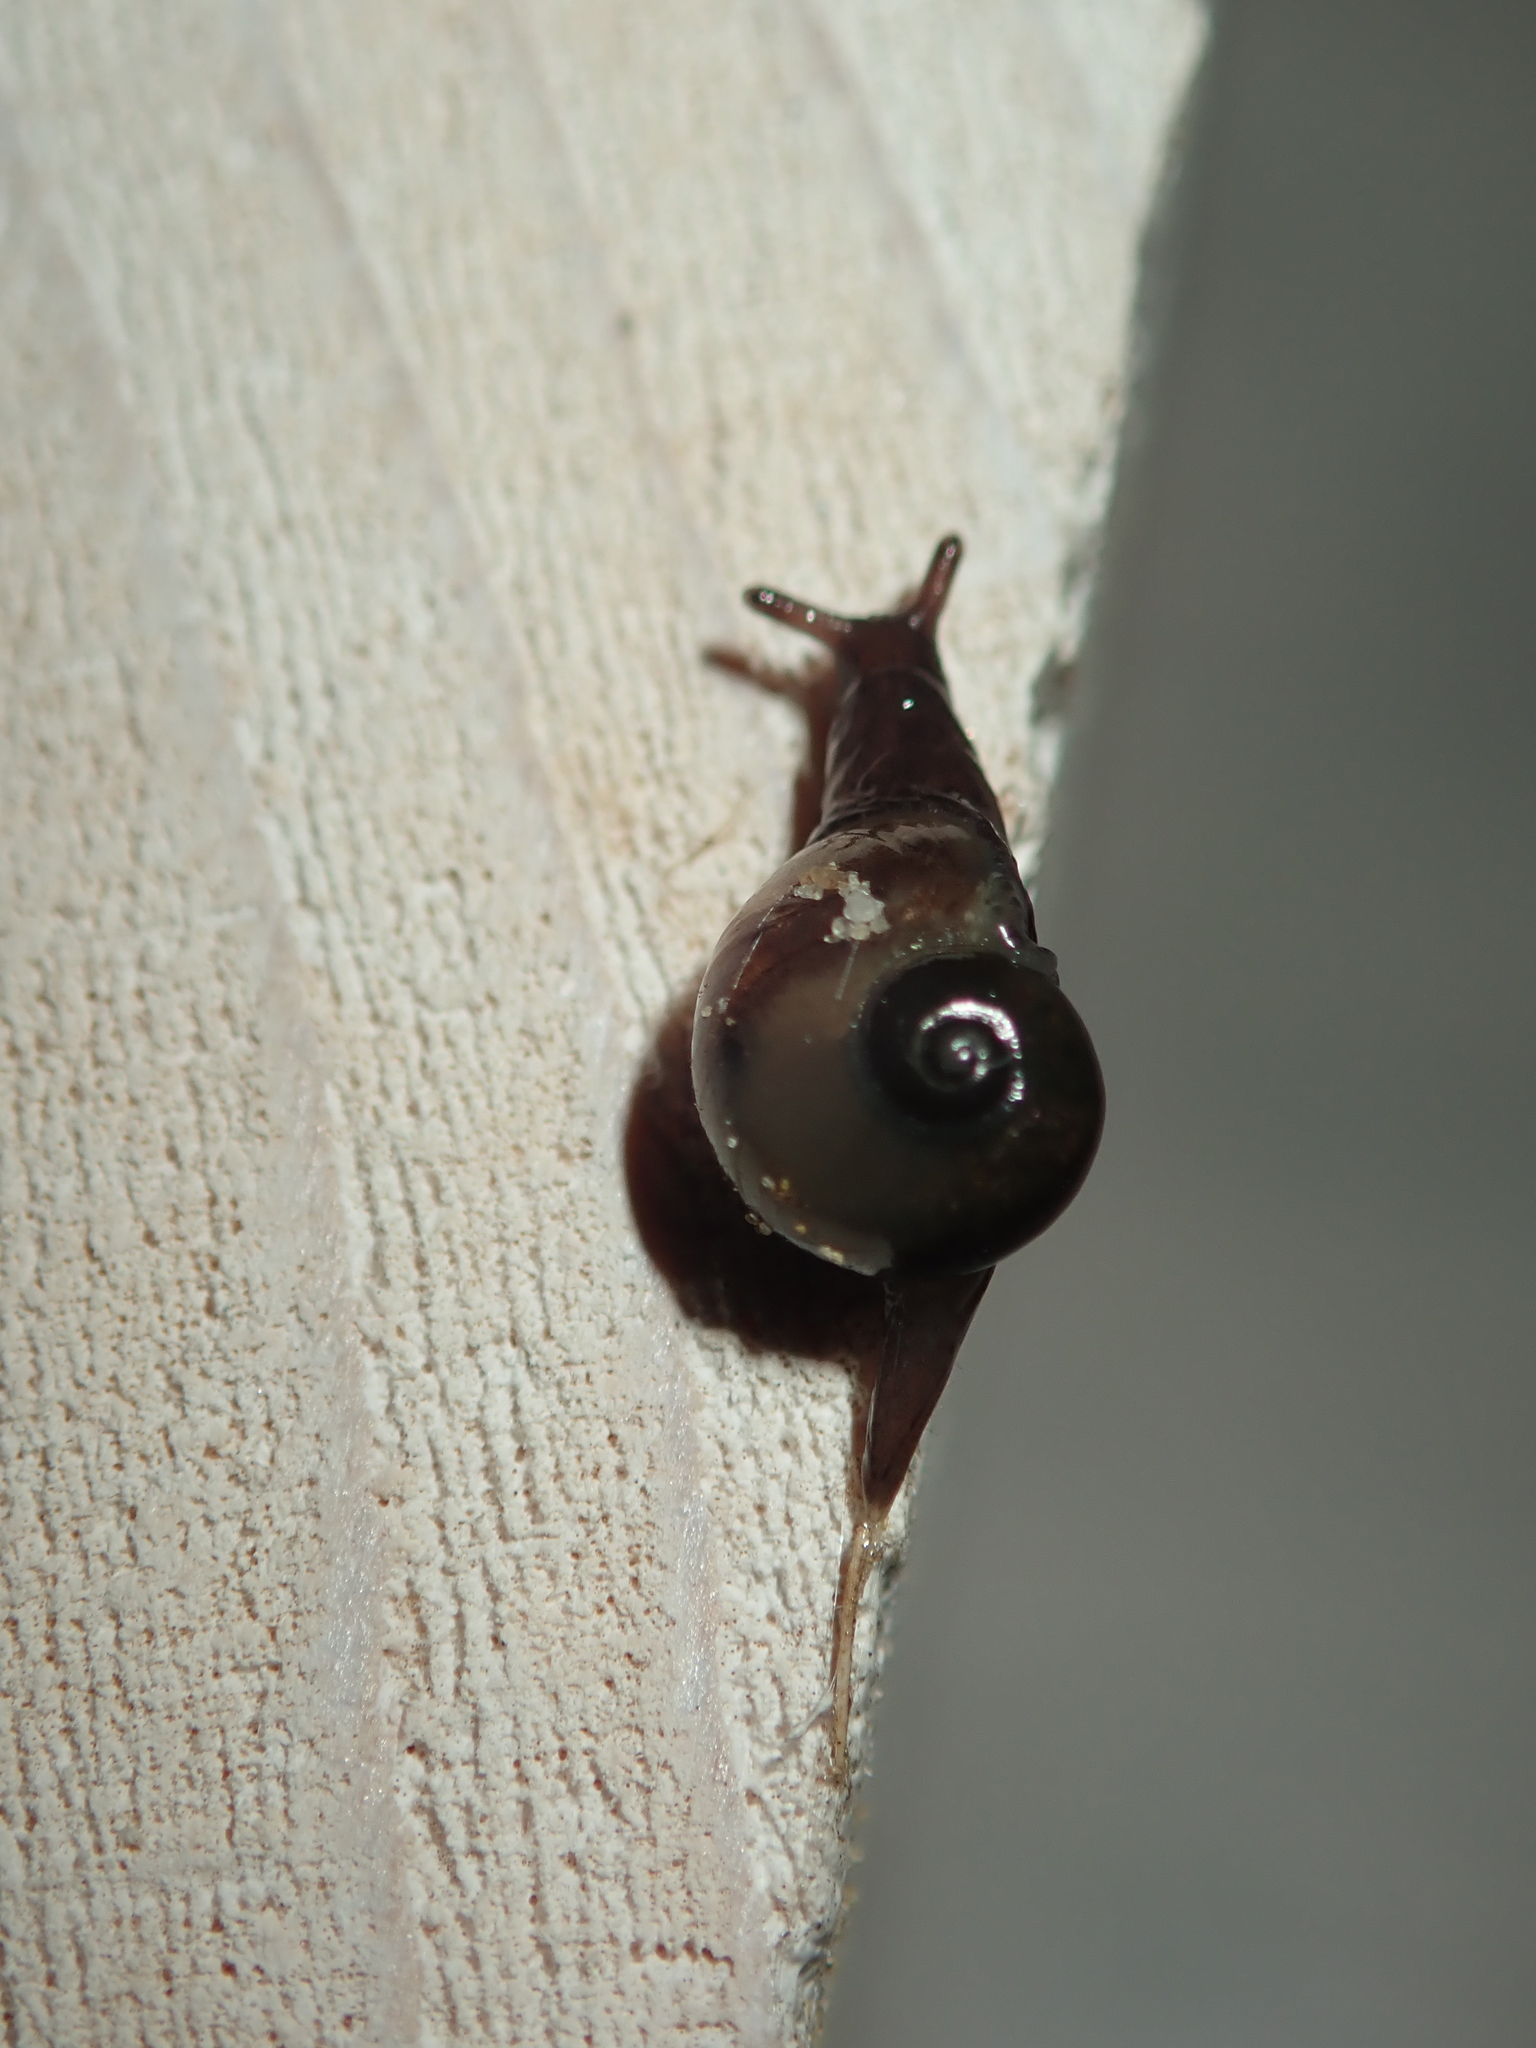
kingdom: Animalia
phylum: Mollusca
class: Gastropoda
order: Stylommatophora
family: Vitrinidae
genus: Vitrina
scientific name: Vitrina pellucida
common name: Pellucid glass snail
